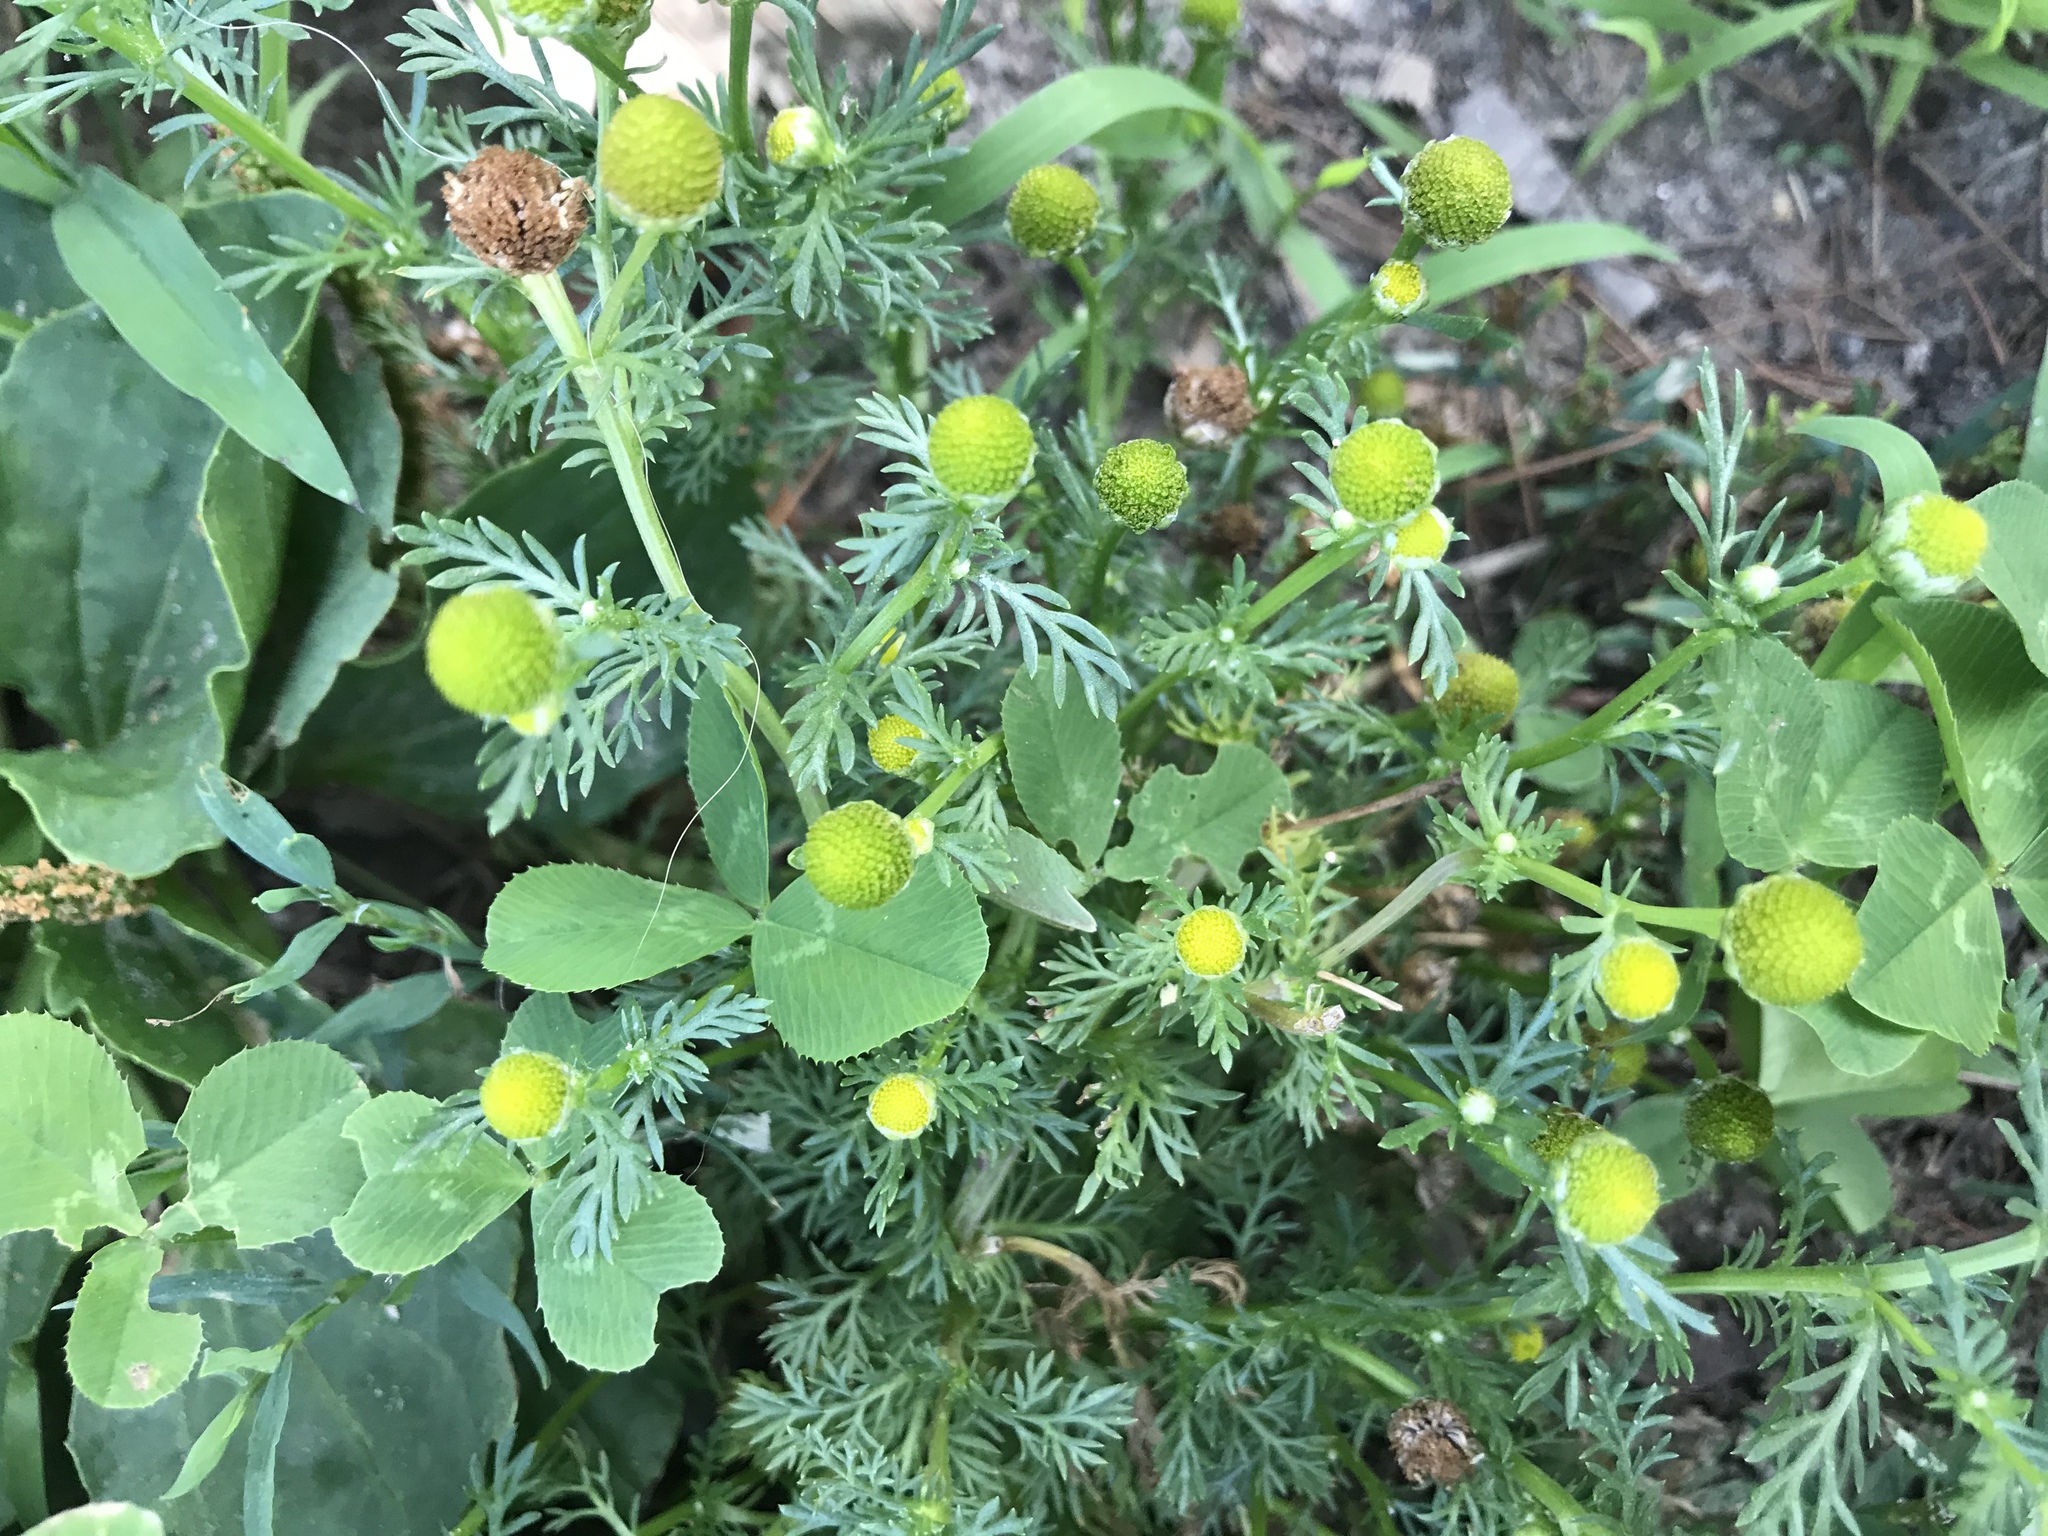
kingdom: Plantae
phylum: Tracheophyta
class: Magnoliopsida
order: Asterales
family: Asteraceae
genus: Matricaria
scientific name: Matricaria discoidea
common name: Disc mayweed
